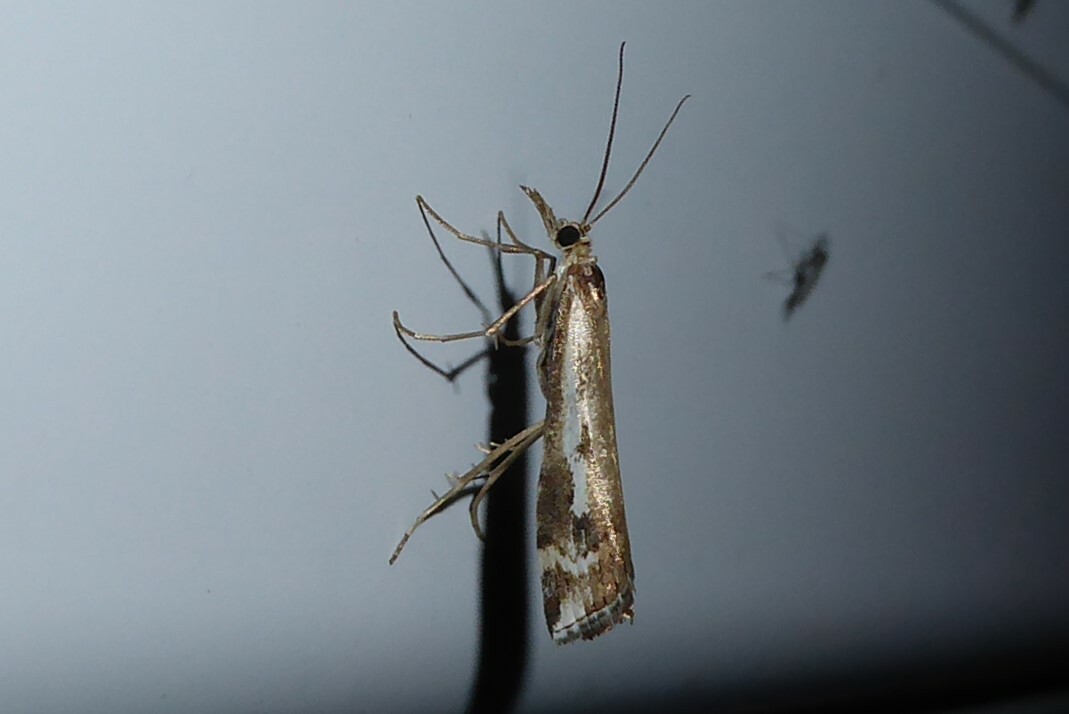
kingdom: Animalia
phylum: Arthropoda
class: Insecta
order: Lepidoptera
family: Crambidae
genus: Orocrambus
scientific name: Orocrambus vulgaris
